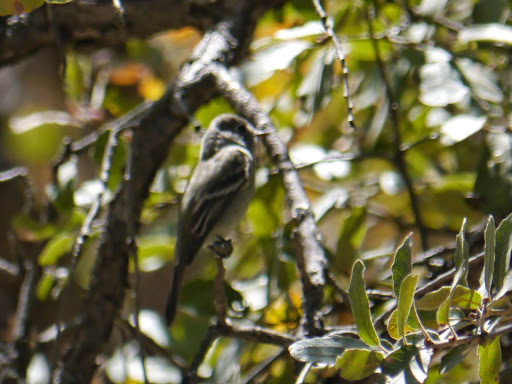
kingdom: Animalia
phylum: Chordata
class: Aves
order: Passeriformes
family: Tyrannidae
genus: Empidonax
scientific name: Empidonax
